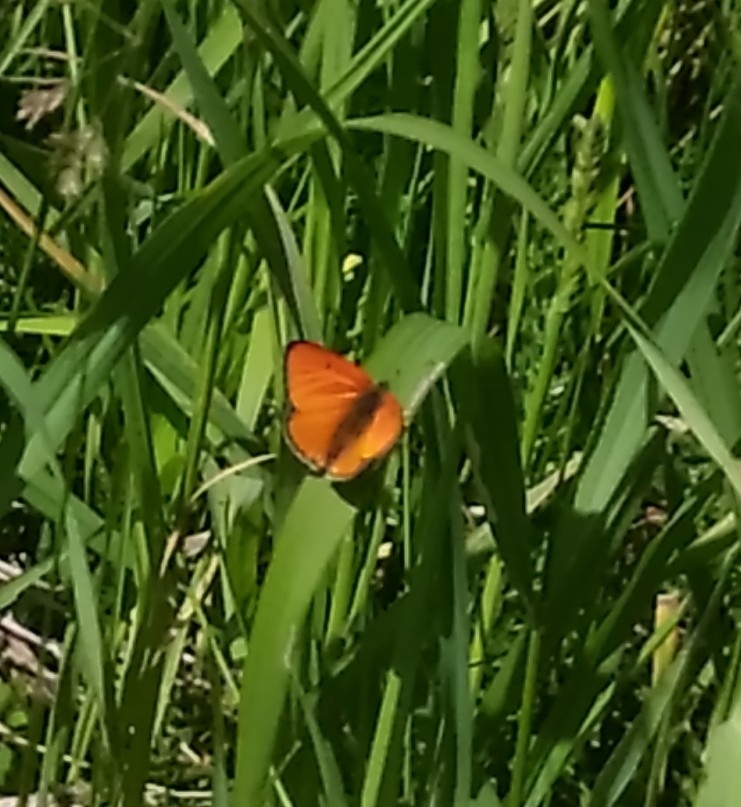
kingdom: Animalia
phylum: Arthropoda
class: Insecta
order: Lepidoptera
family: Lycaenidae
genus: Lycaena
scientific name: Lycaena dispar
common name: Large copper
